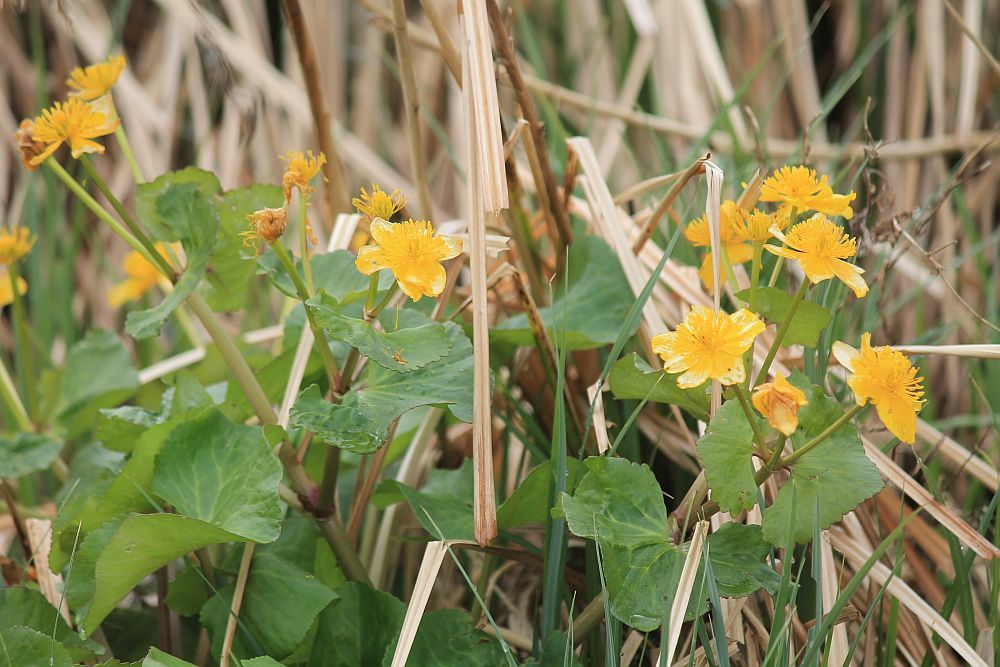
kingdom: Plantae
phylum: Tracheophyta
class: Magnoliopsida
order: Ranunculales
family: Ranunculaceae
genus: Caltha
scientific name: Caltha palustris
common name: Marsh marigold
